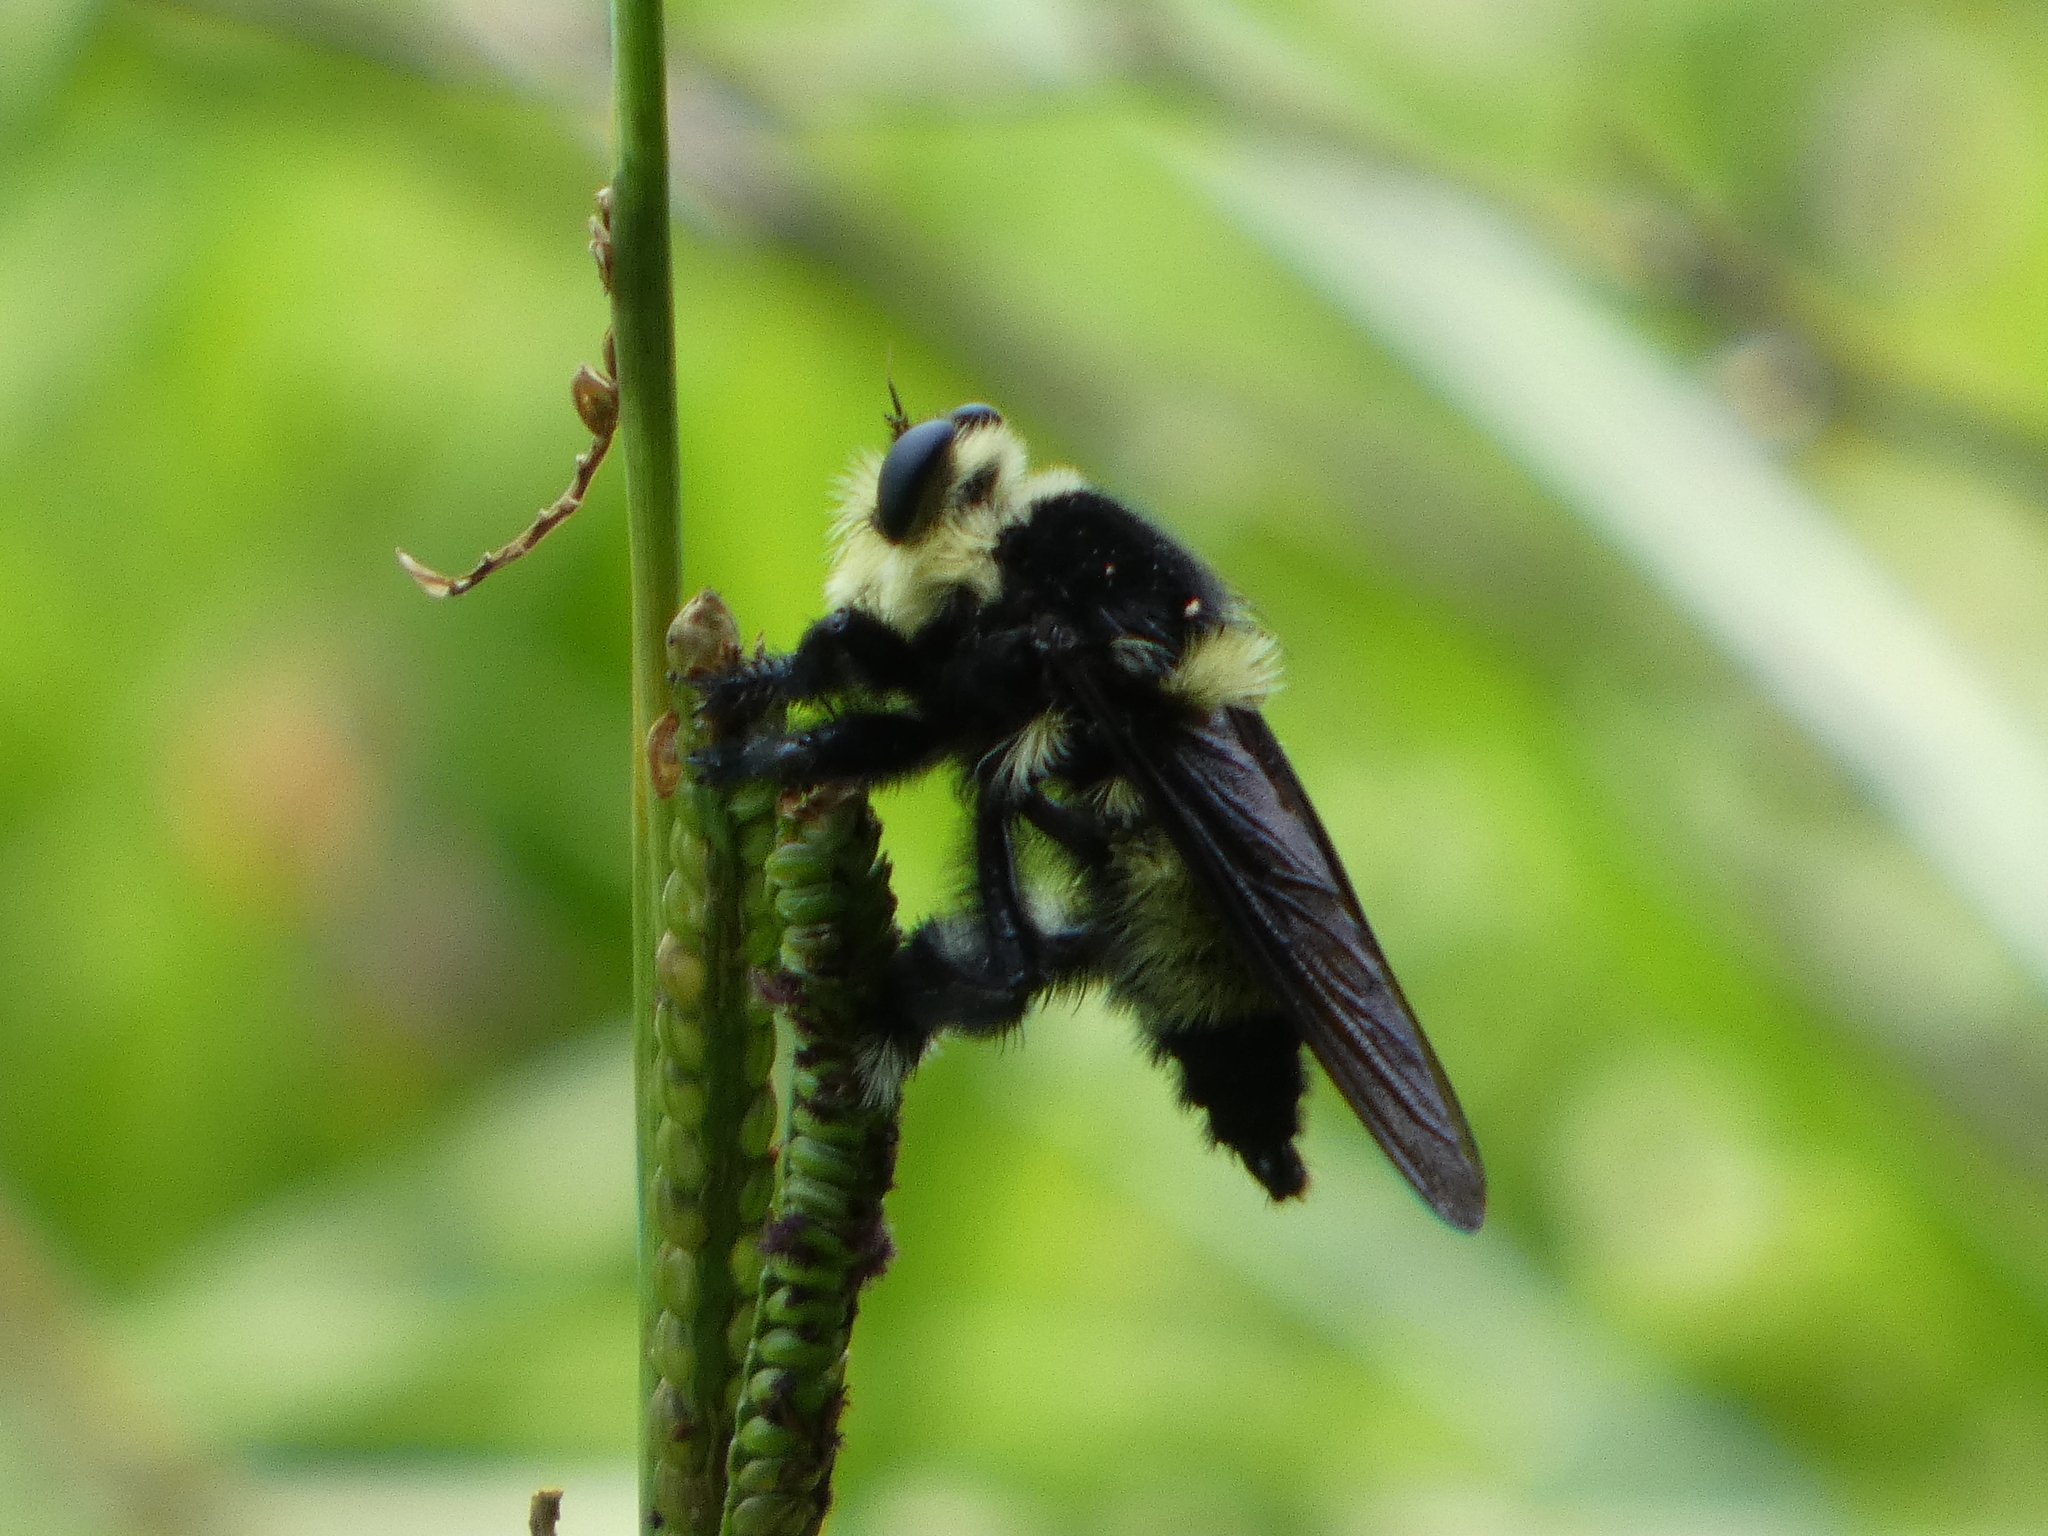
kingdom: Animalia
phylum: Arthropoda
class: Insecta
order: Diptera
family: Asilidae
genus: Mallophora
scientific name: Mallophora orcina
